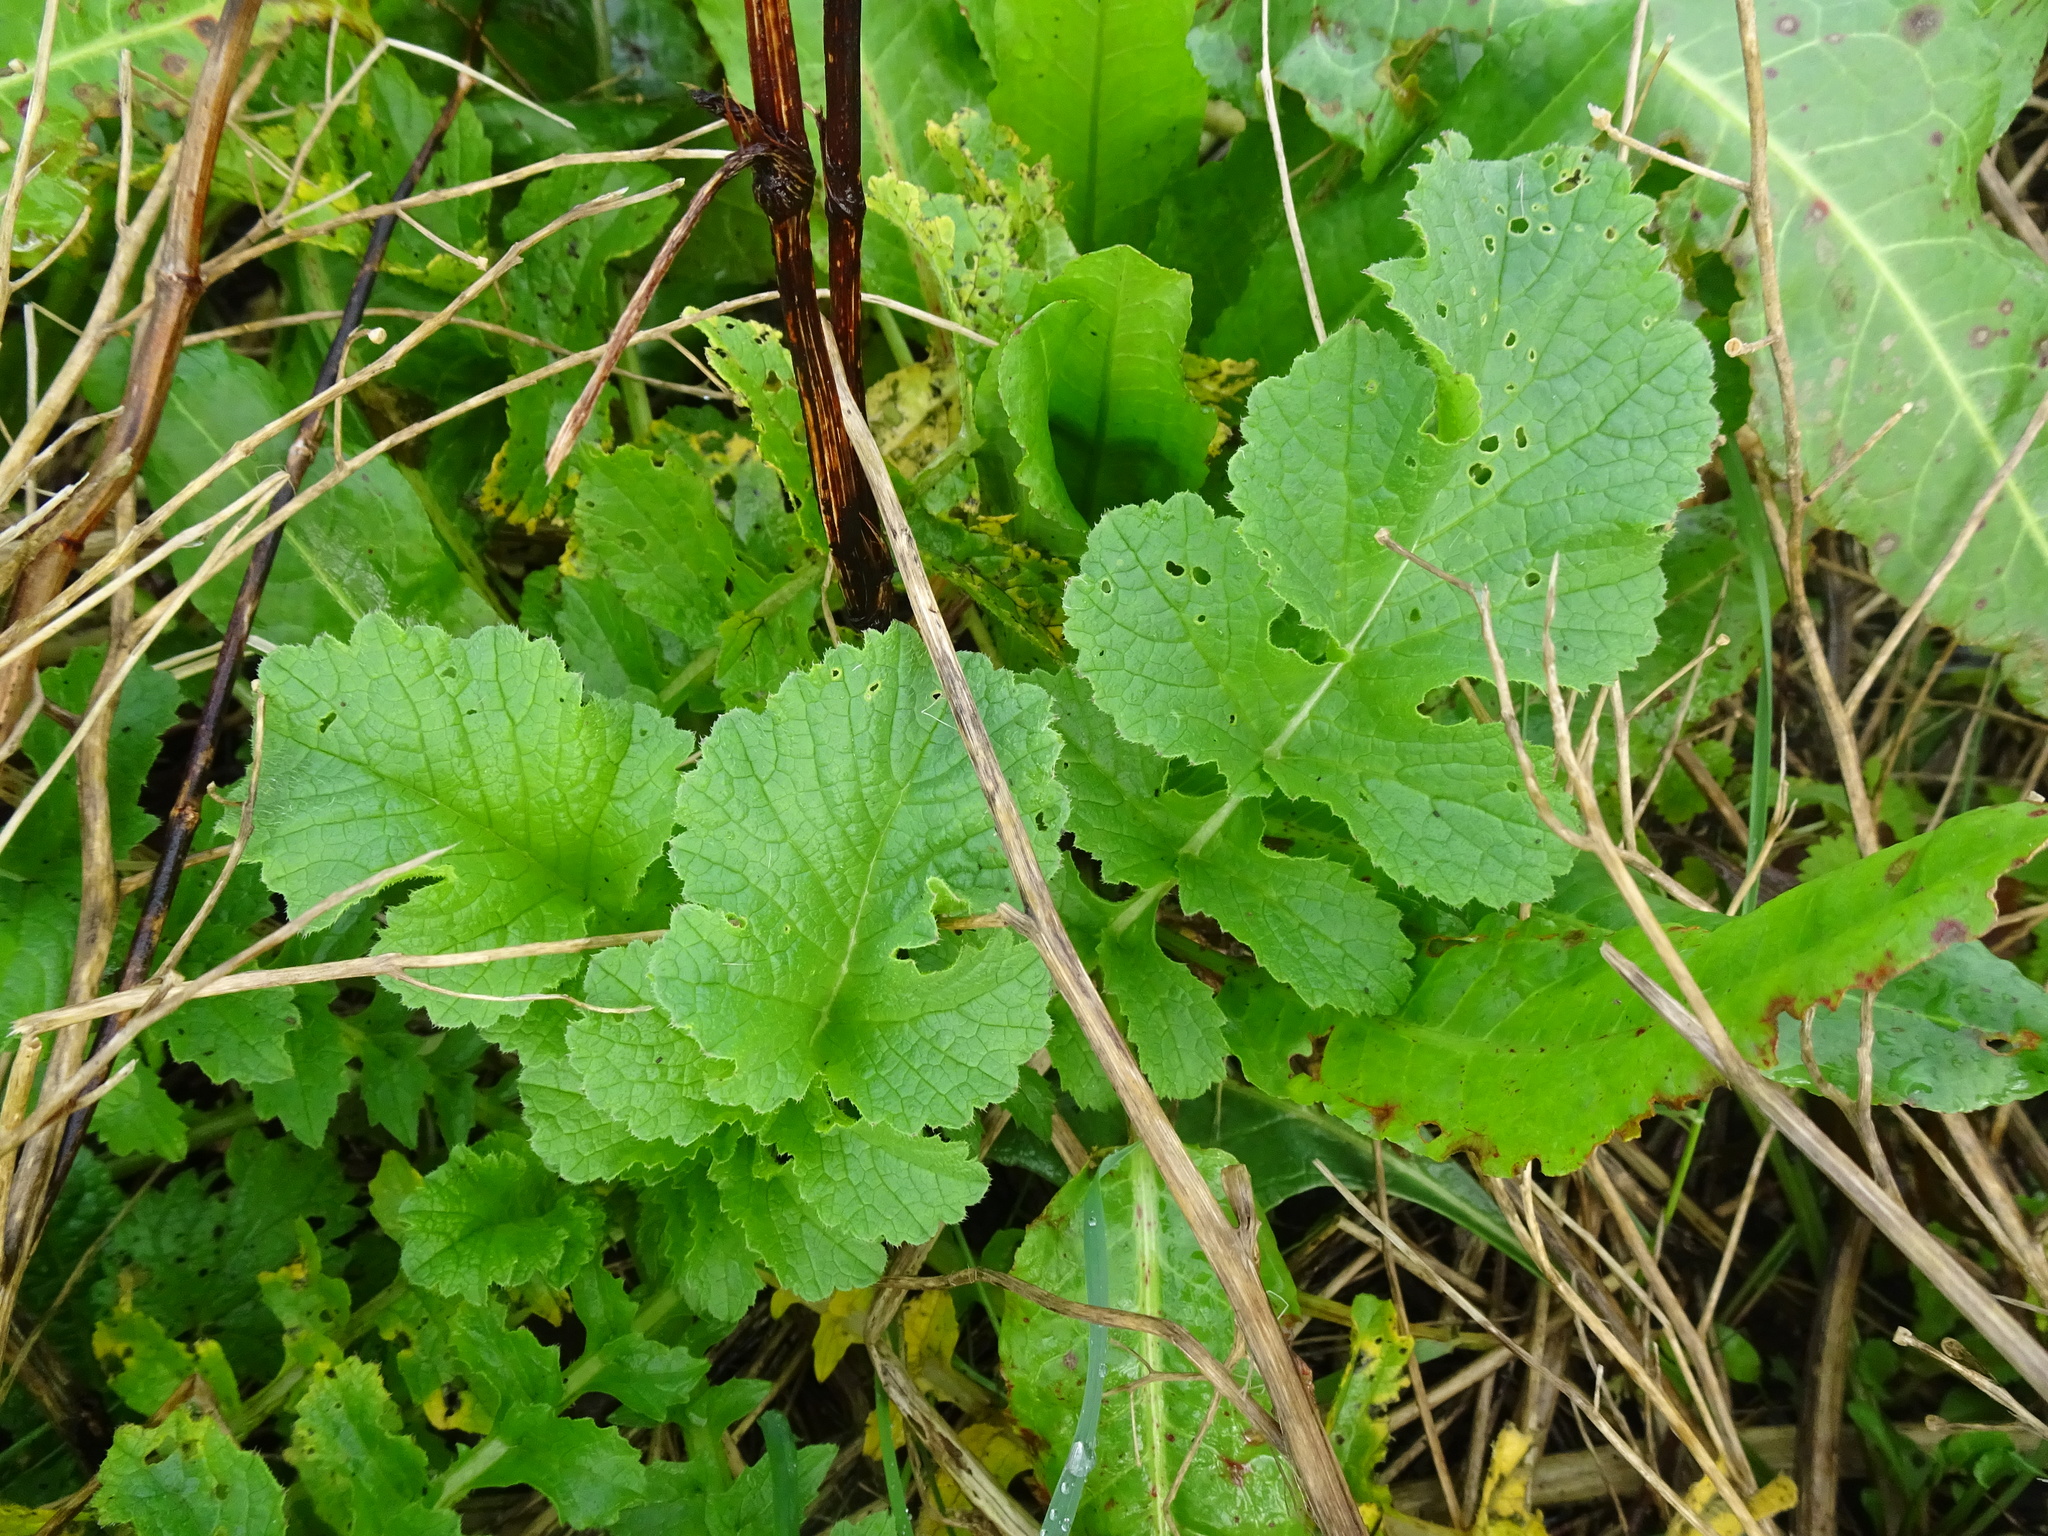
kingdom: Plantae
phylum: Tracheophyta
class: Magnoliopsida
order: Brassicales
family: Brassicaceae
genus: Raphanus
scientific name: Raphanus raphanistrum
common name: Wild radish
